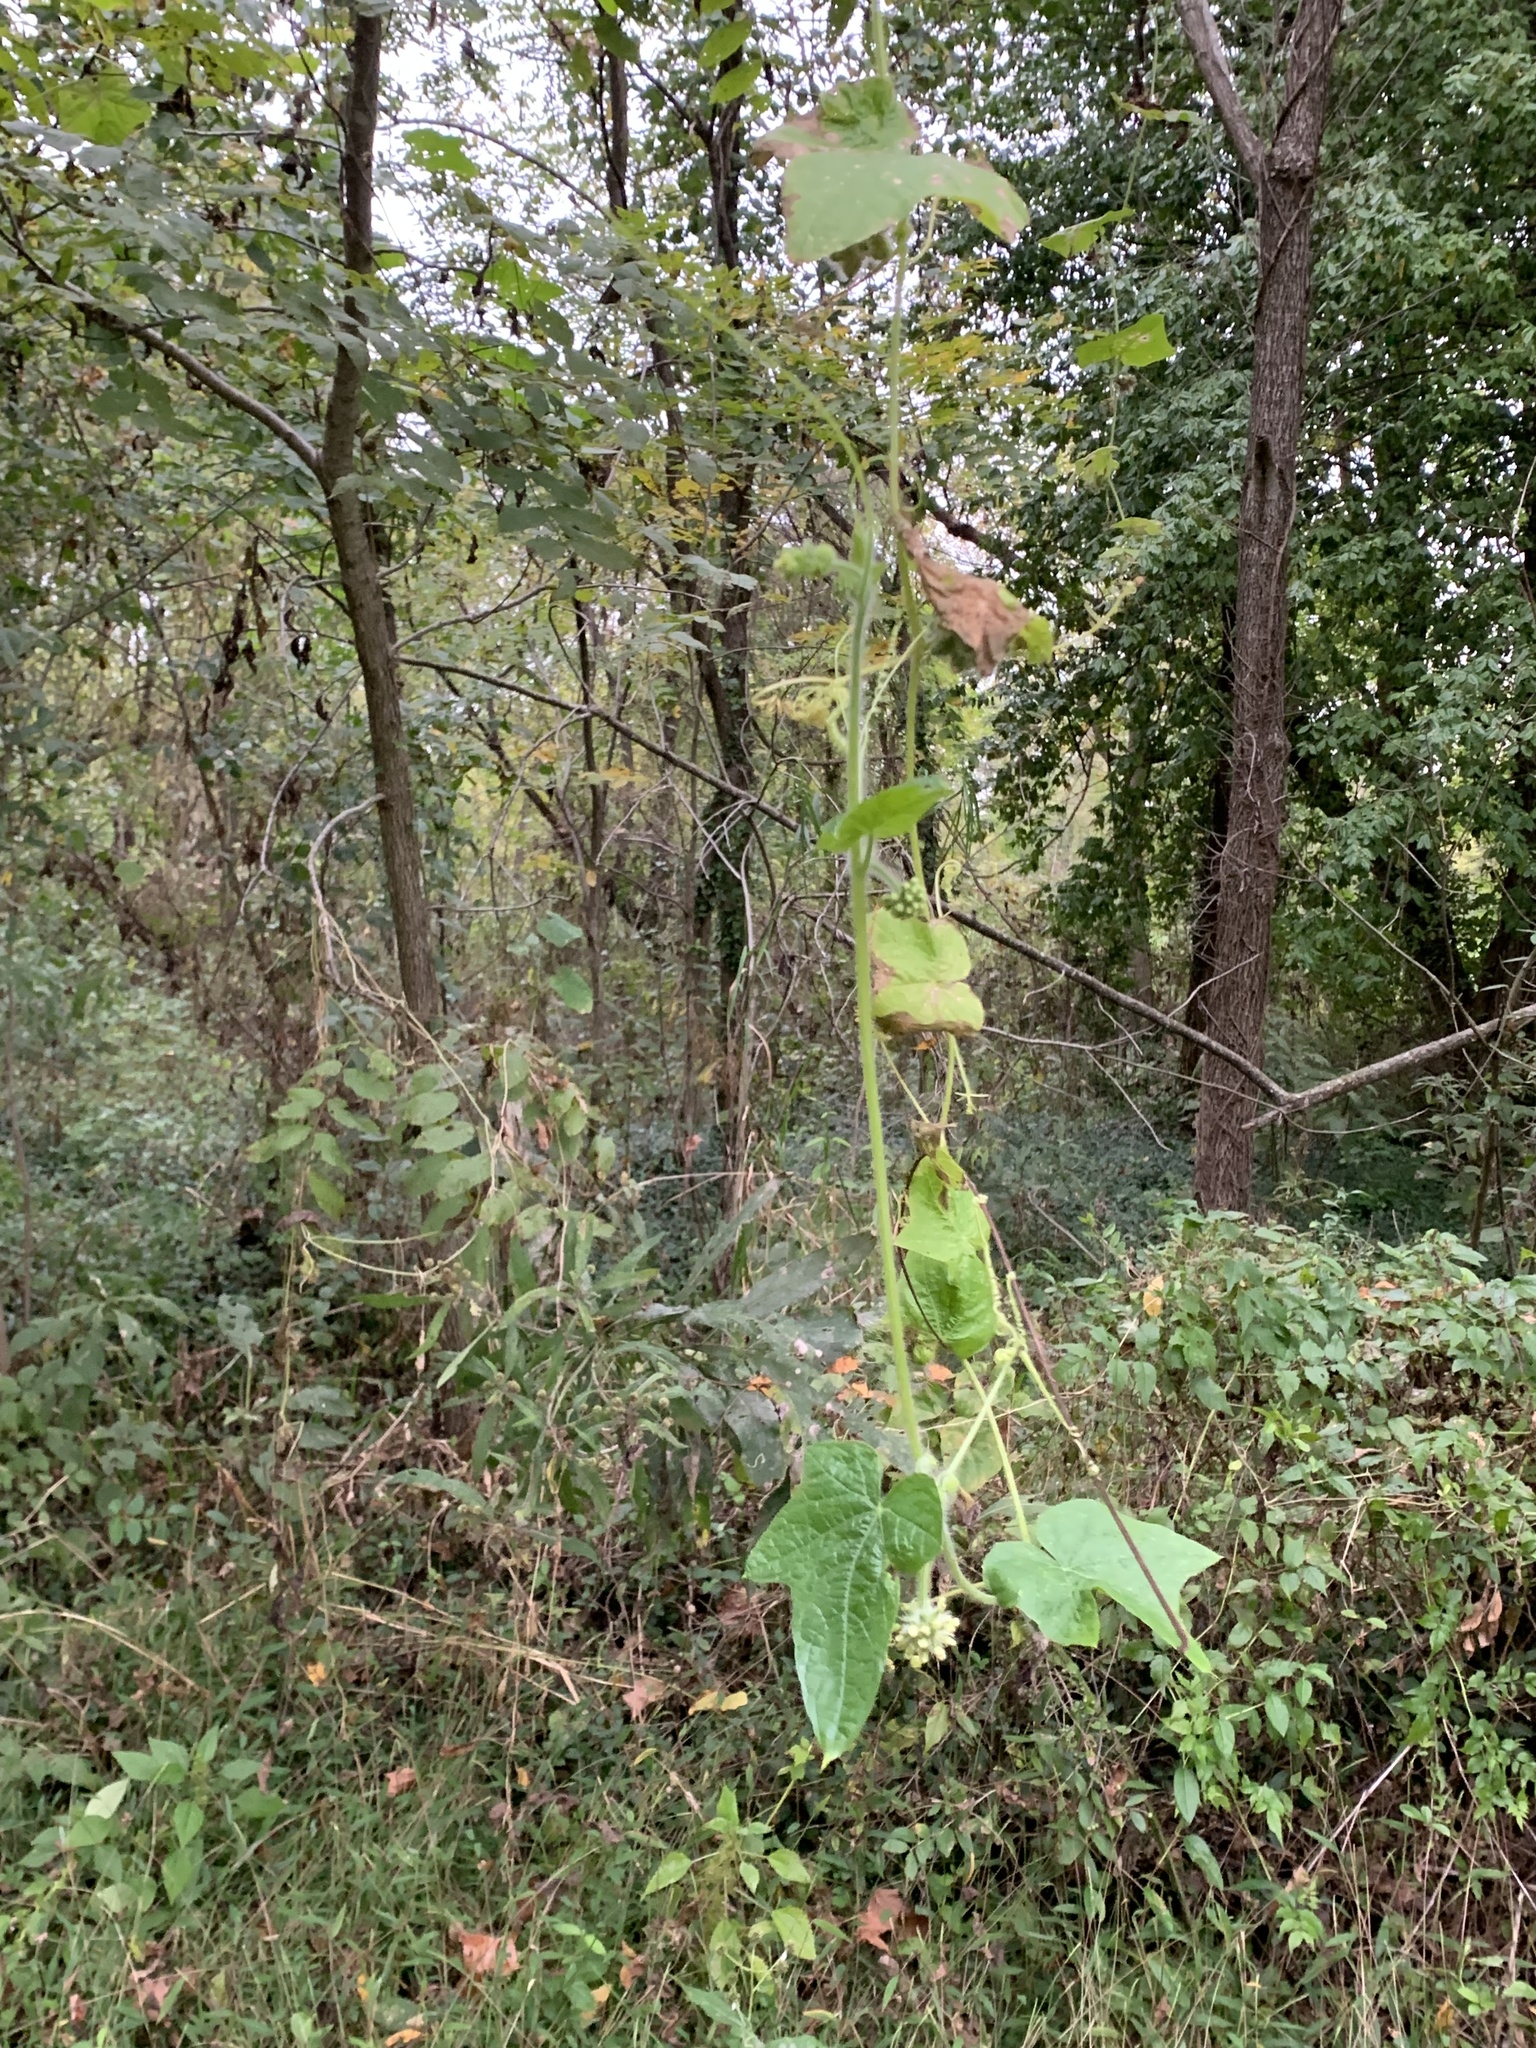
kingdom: Plantae
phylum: Tracheophyta
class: Magnoliopsida
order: Cucurbitales
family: Cucurbitaceae
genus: Sicyos
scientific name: Sicyos angulatus
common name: Angled burr cucumber
